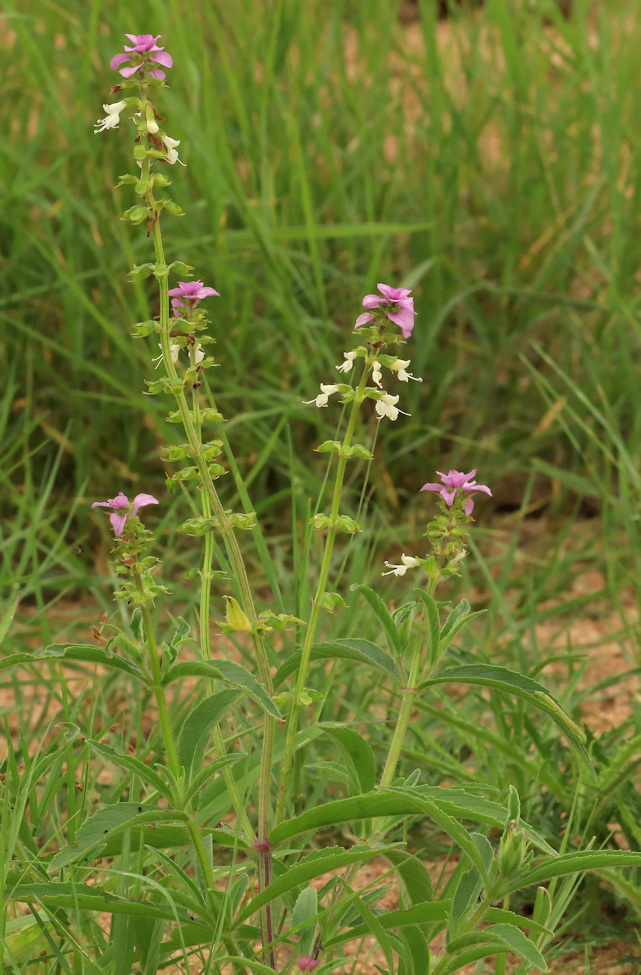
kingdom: Plantae
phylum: Tracheophyta
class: Magnoliopsida
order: Lamiales
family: Lamiaceae
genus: Syncolostemon
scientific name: Syncolostemon bracteosus
